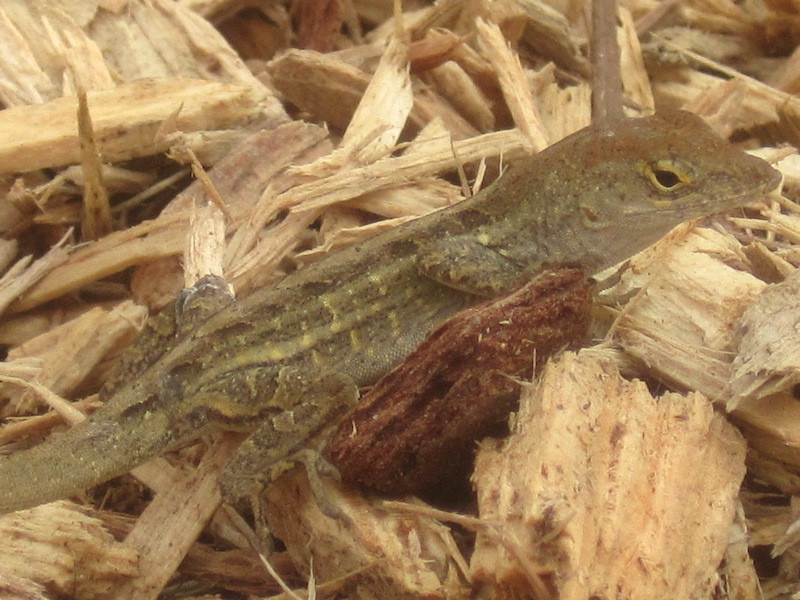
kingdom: Animalia
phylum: Chordata
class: Squamata
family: Dactyloidae
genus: Anolis
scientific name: Anolis sagrei
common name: Brown anole
